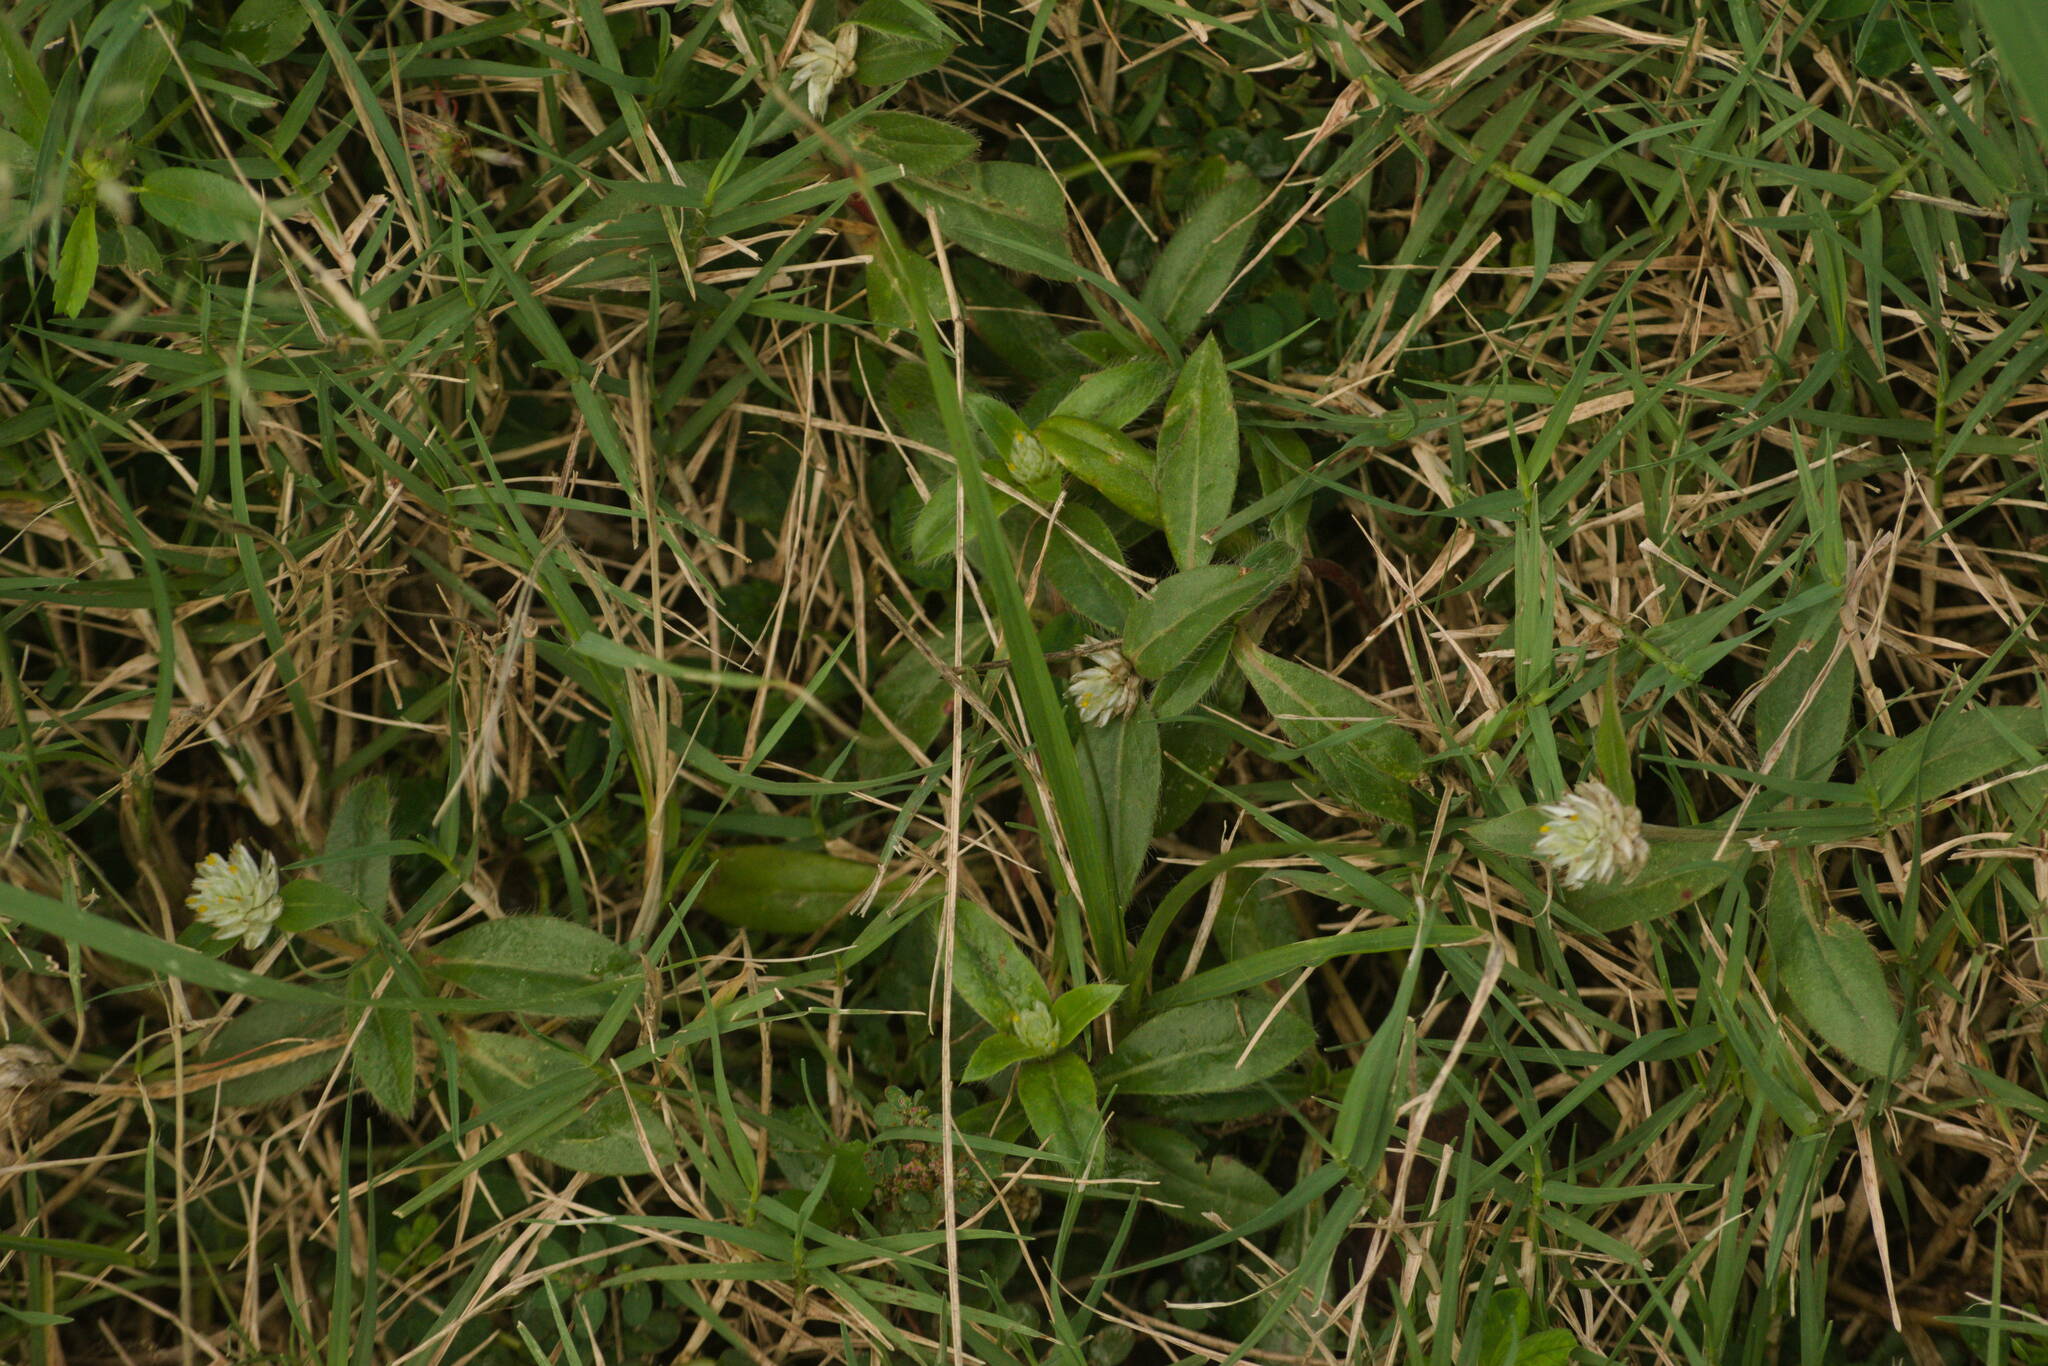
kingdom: Plantae
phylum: Tracheophyta
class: Magnoliopsida
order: Caryophyllales
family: Amaranthaceae
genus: Gomphrena
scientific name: Gomphrena celosioides
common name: Gomphrena-weed
